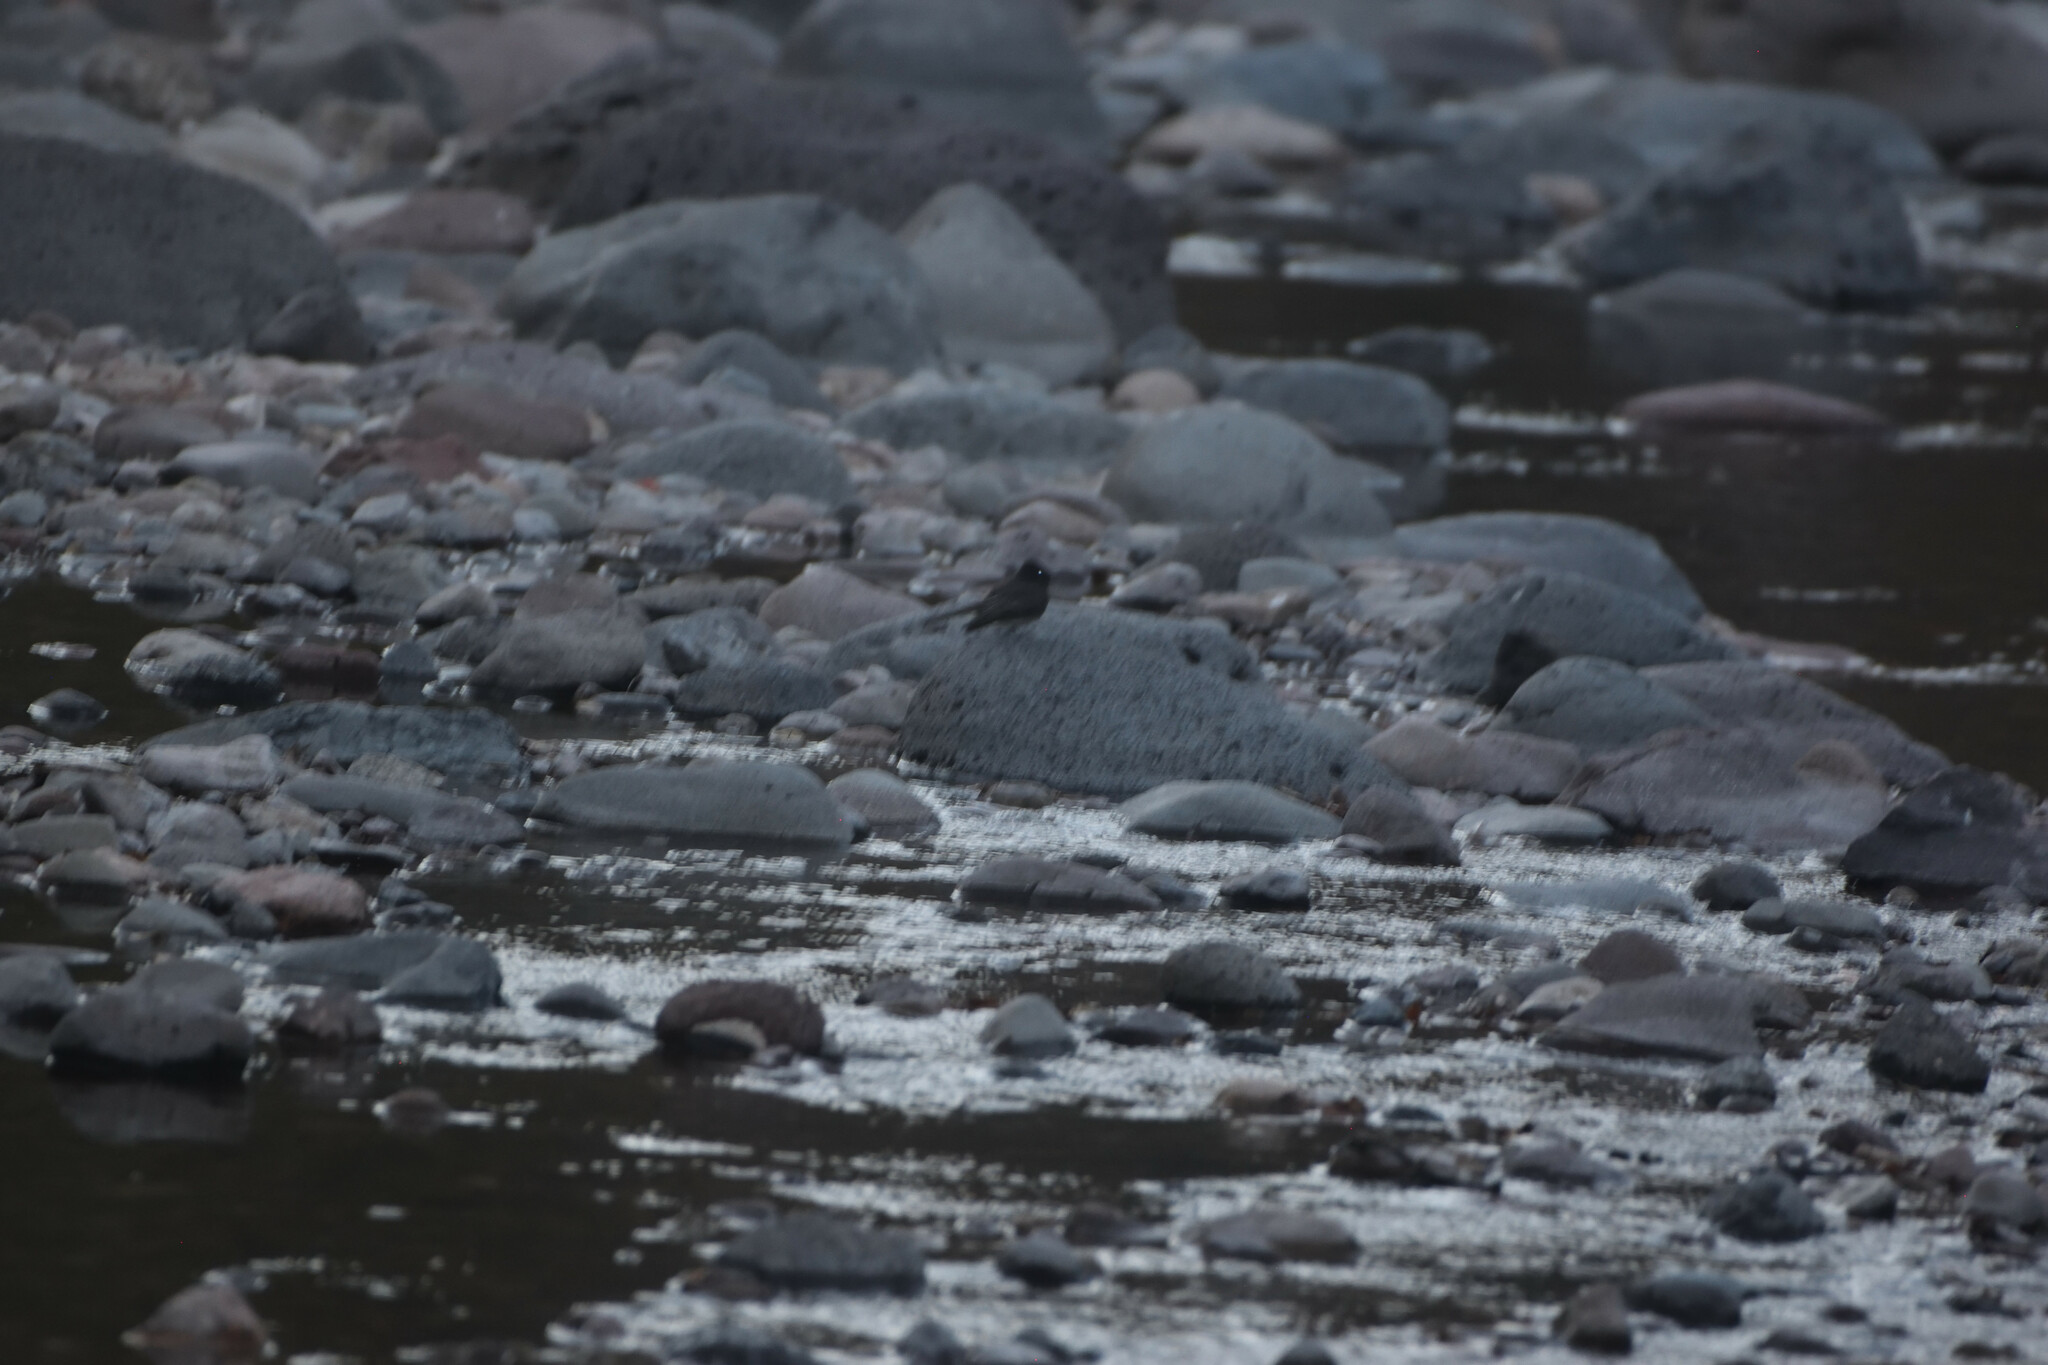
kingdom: Animalia
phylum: Chordata
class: Aves
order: Passeriformes
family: Tyrannidae
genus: Sayornis
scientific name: Sayornis nigricans
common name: Black phoebe
